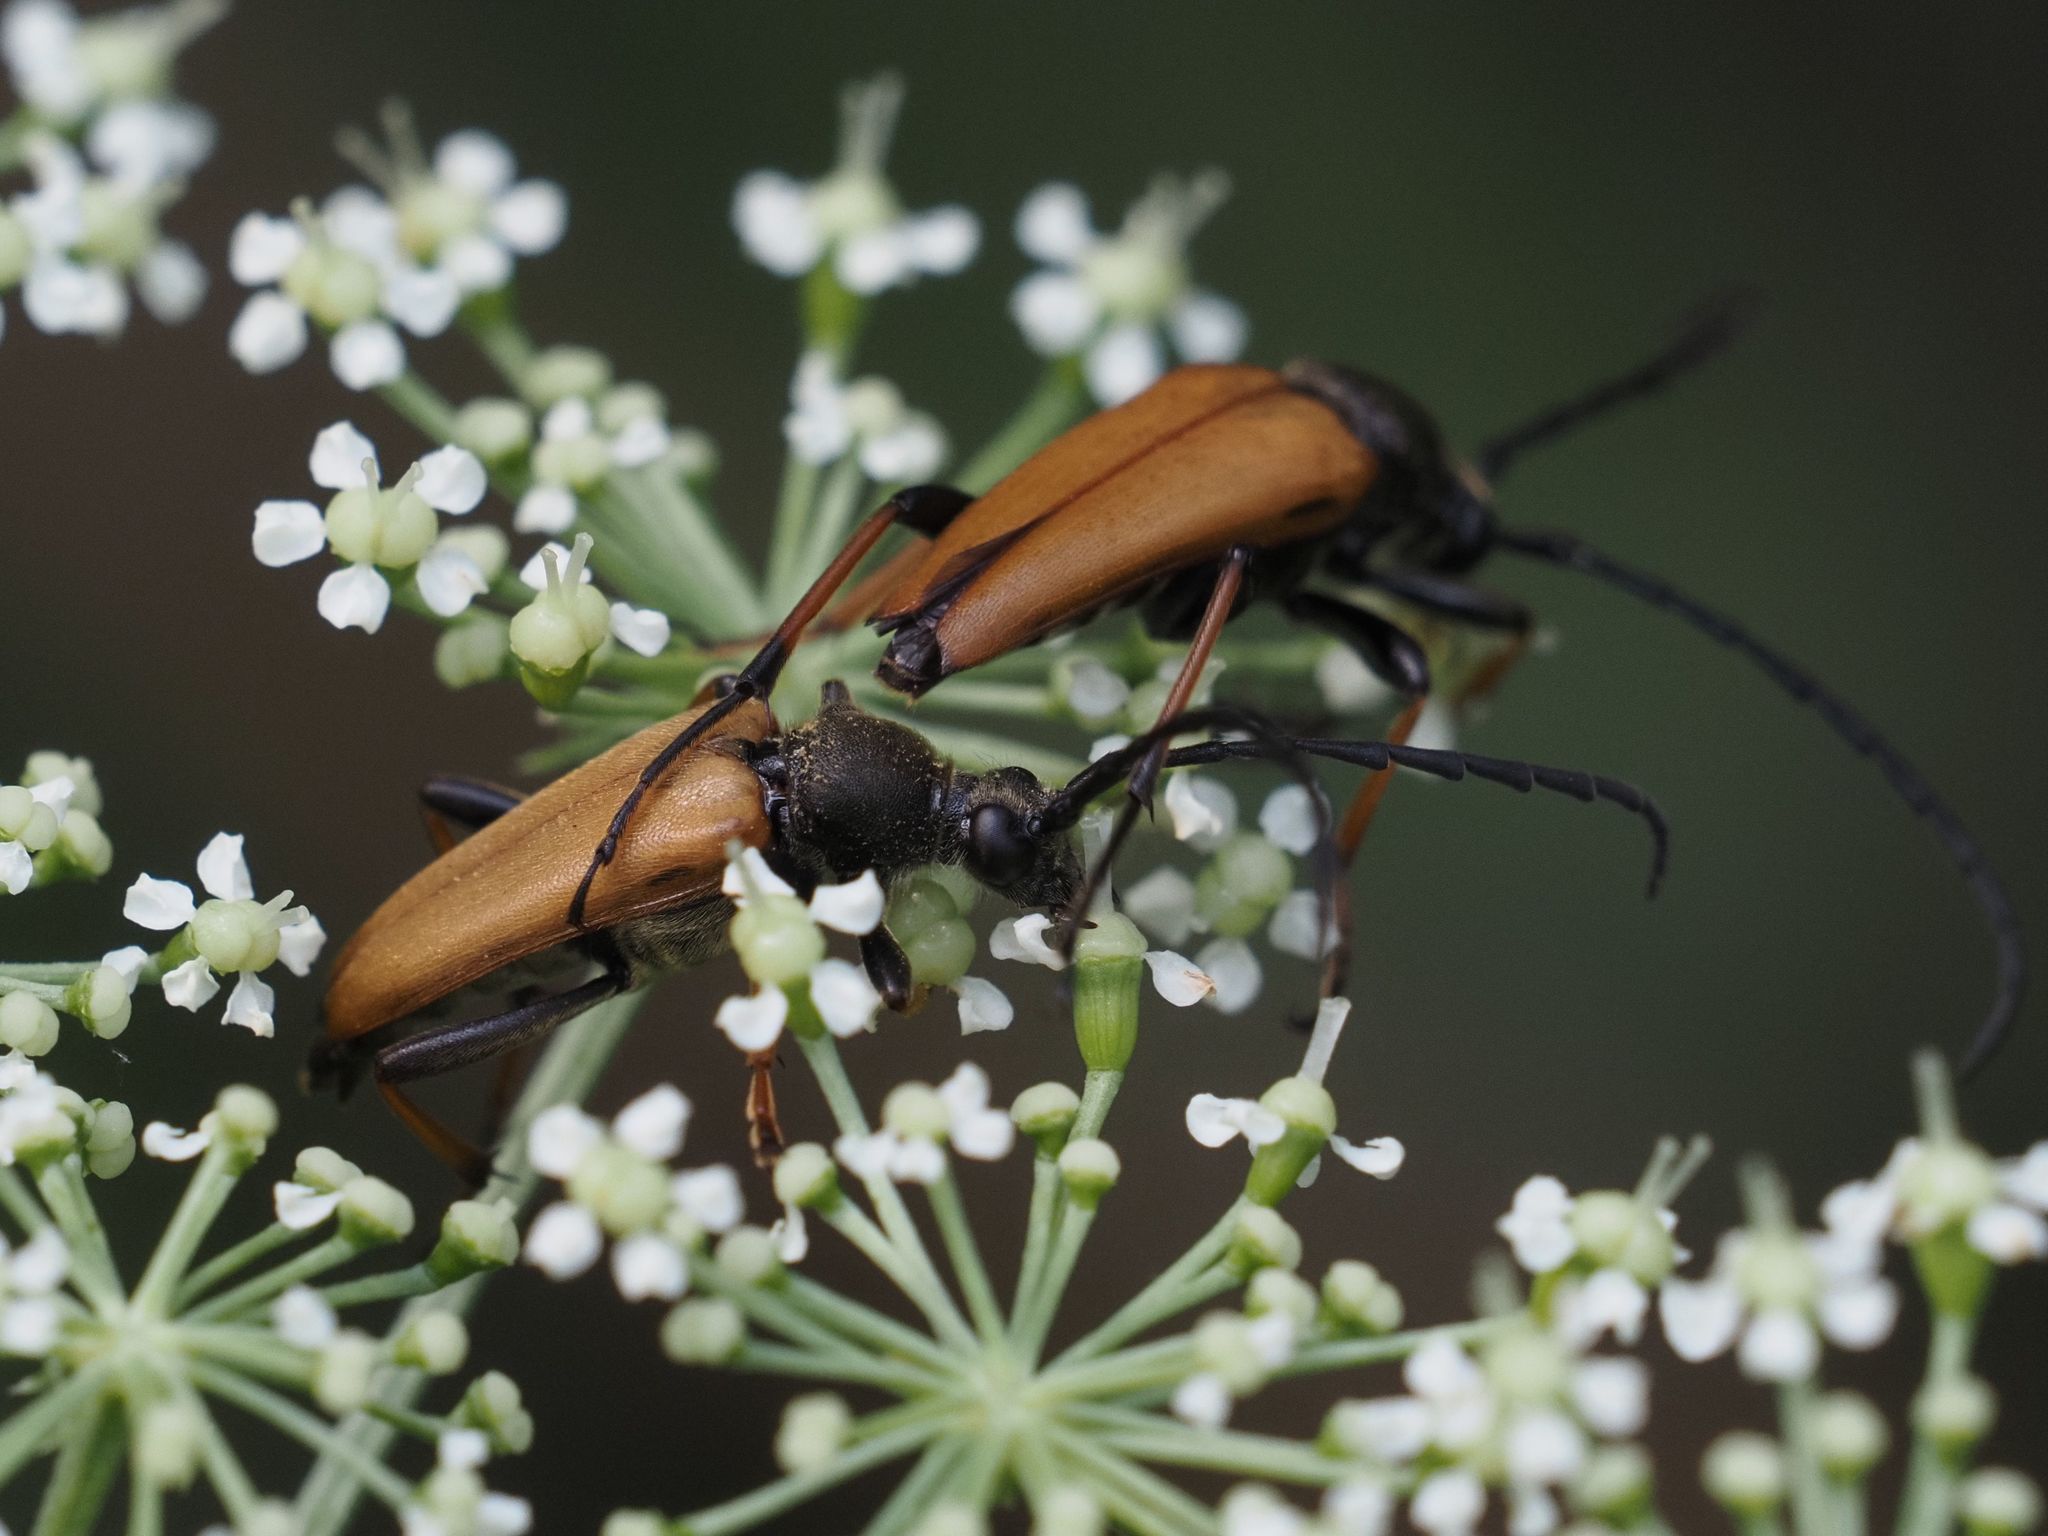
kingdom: Animalia
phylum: Arthropoda
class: Insecta
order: Coleoptera
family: Cerambycidae
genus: Stictoleptura
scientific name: Stictoleptura rubra
